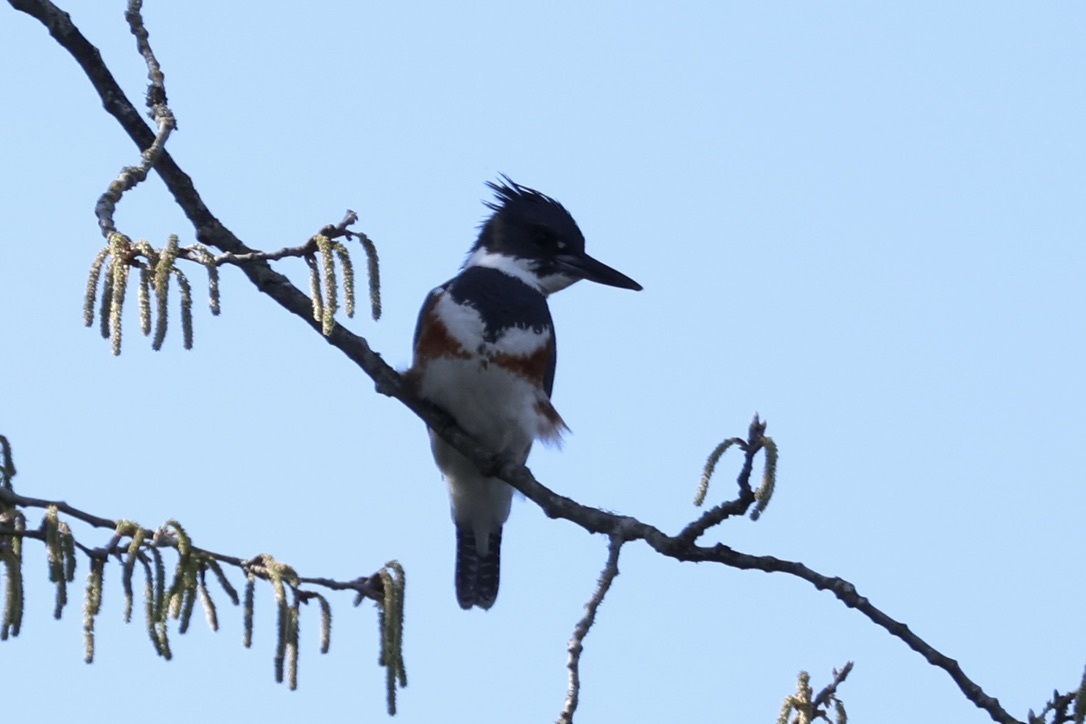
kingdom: Animalia
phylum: Chordata
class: Aves
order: Coraciiformes
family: Alcedinidae
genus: Megaceryle
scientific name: Megaceryle alcyon
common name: Belted kingfisher
